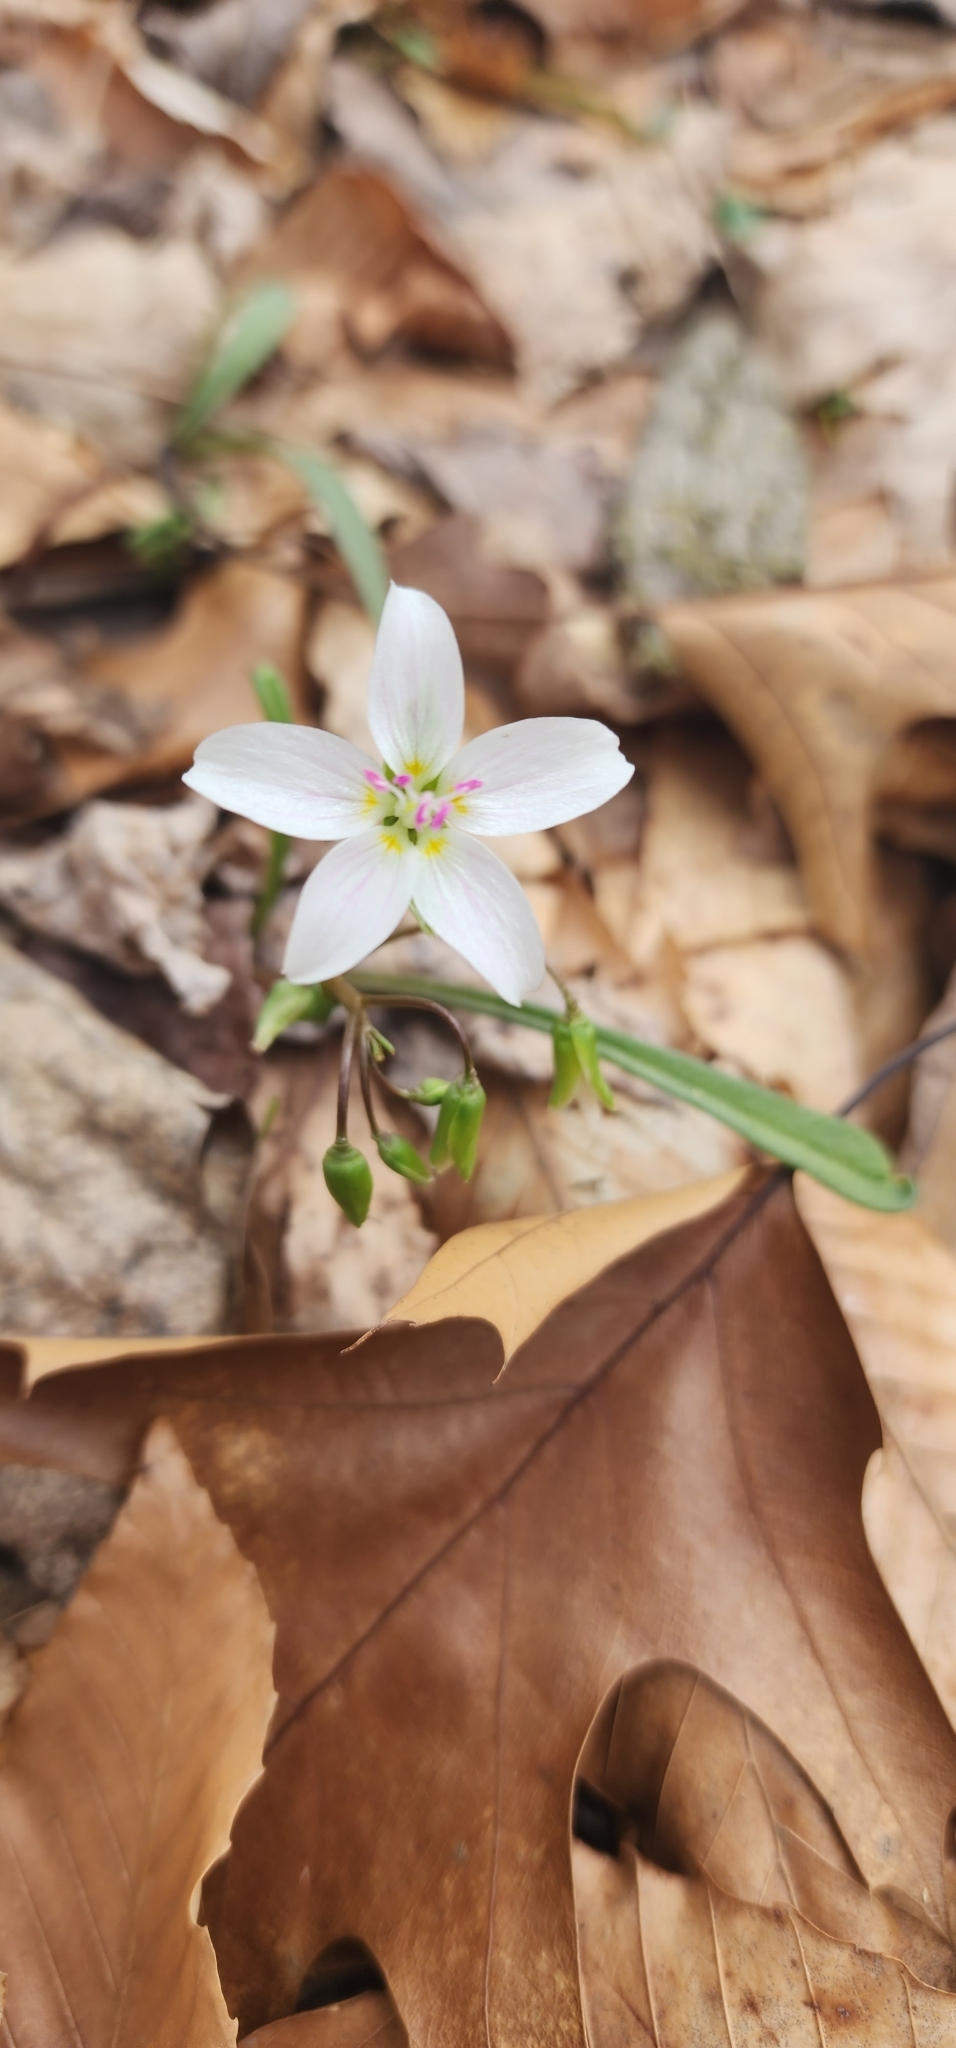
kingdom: Plantae
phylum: Tracheophyta
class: Magnoliopsida
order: Caryophyllales
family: Montiaceae
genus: Claytonia
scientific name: Claytonia virginica
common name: Virginia springbeauty
